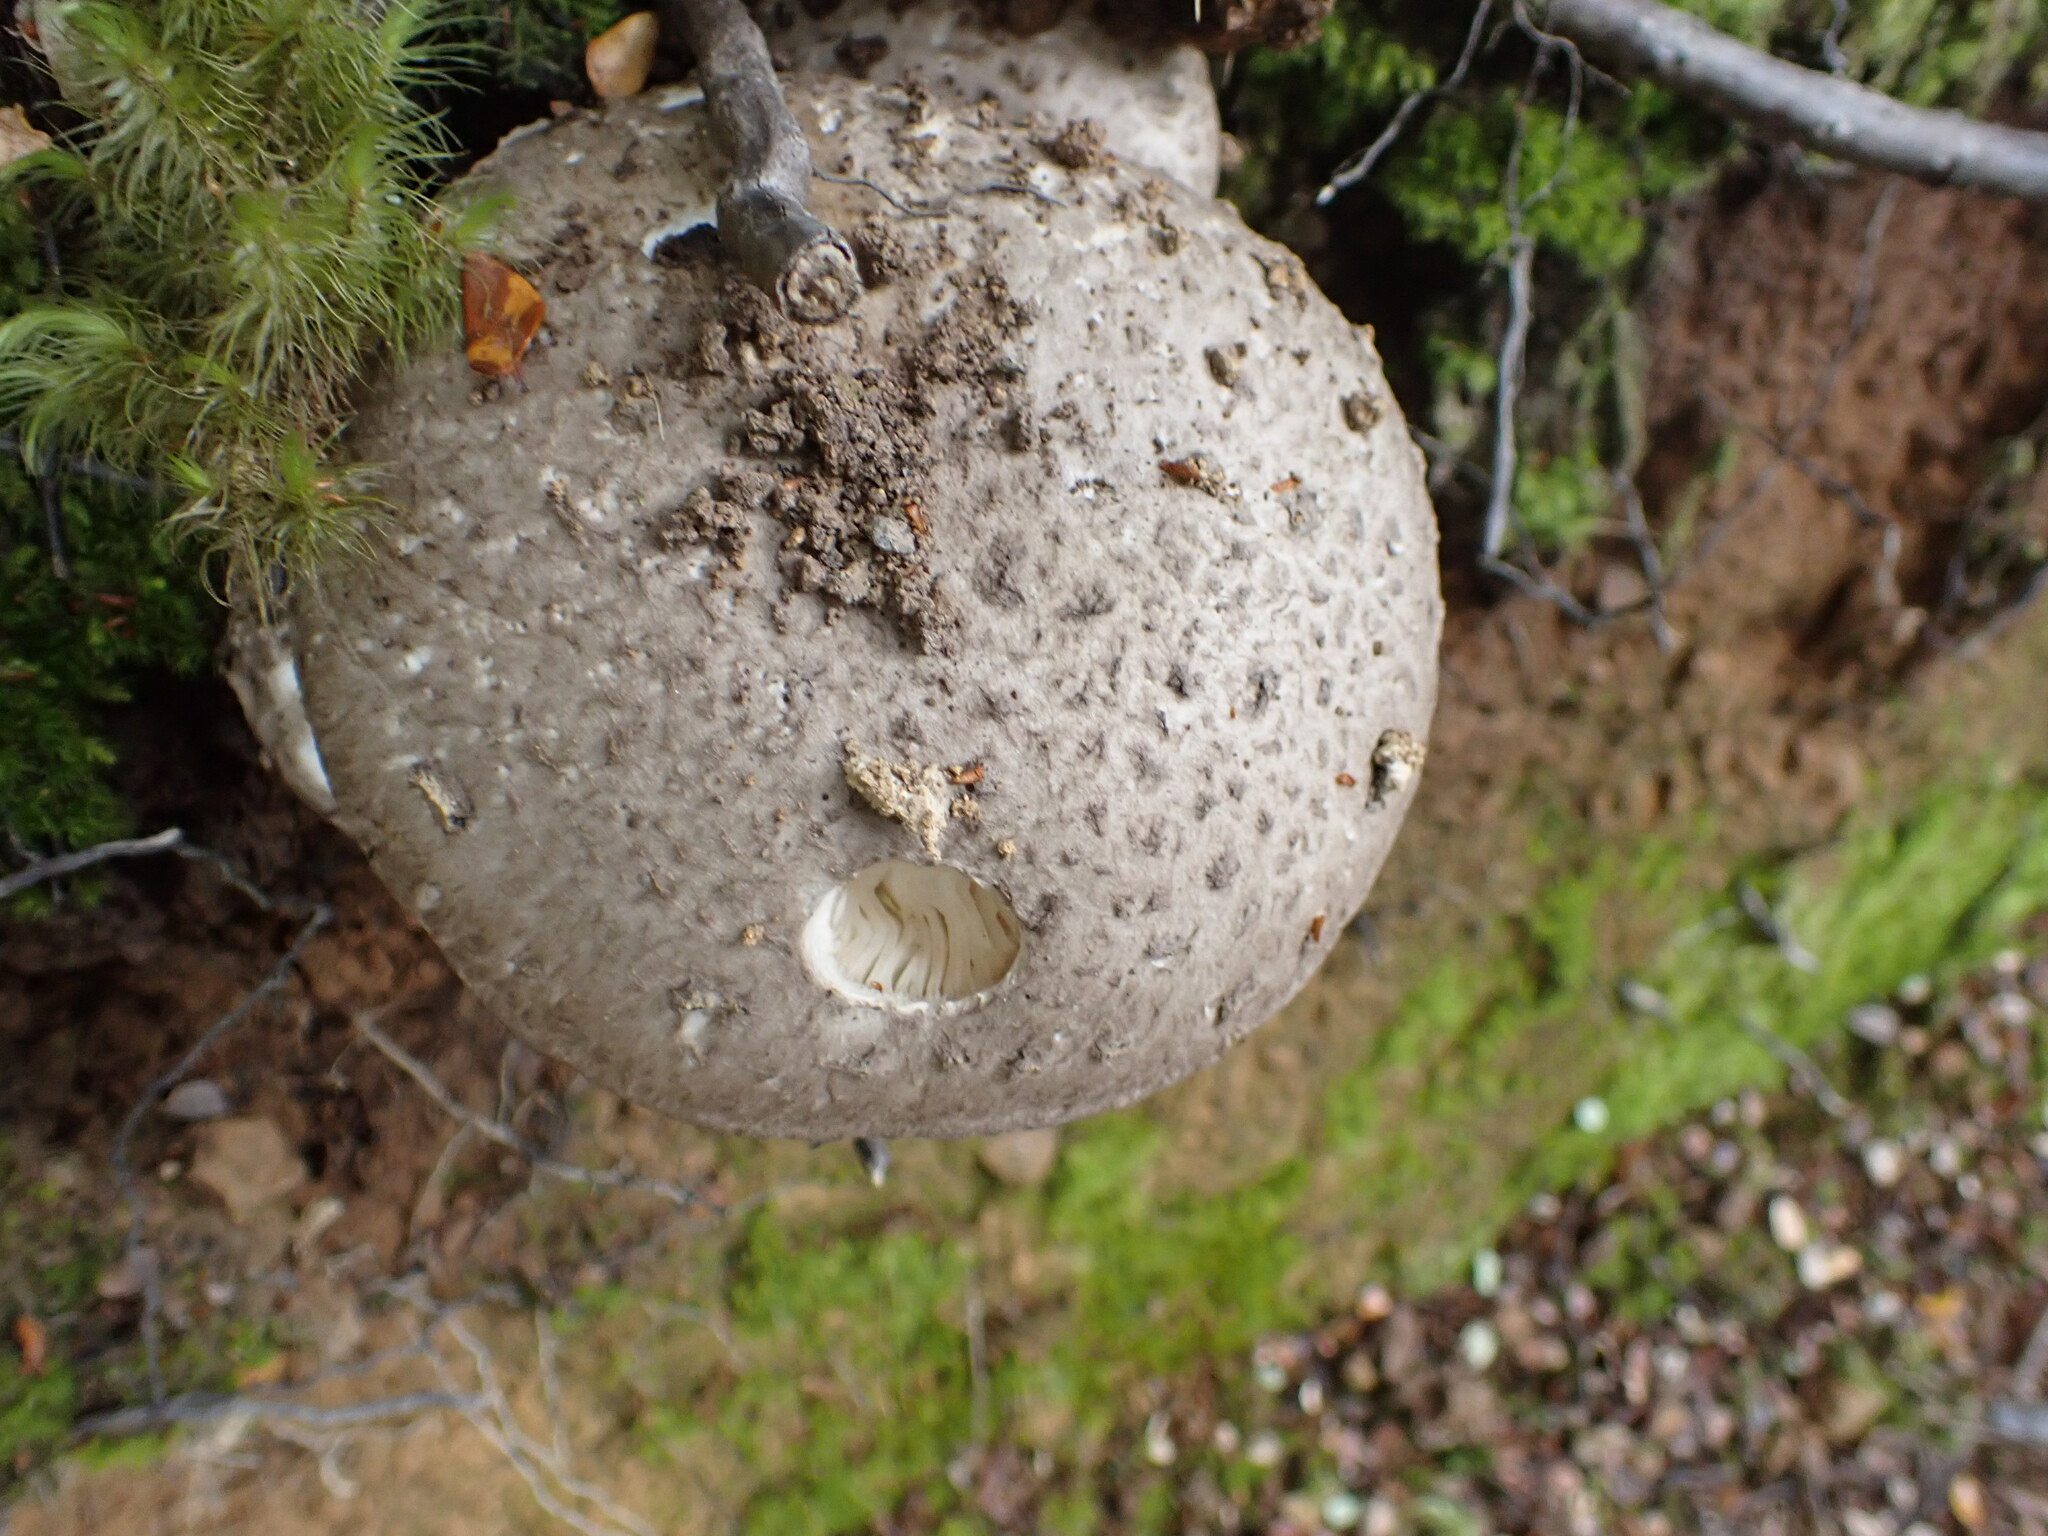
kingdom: Fungi
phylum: Basidiomycota
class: Agaricomycetes
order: Agaricales
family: Amanitaceae
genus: Amanita
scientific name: Amanita nothofagi
